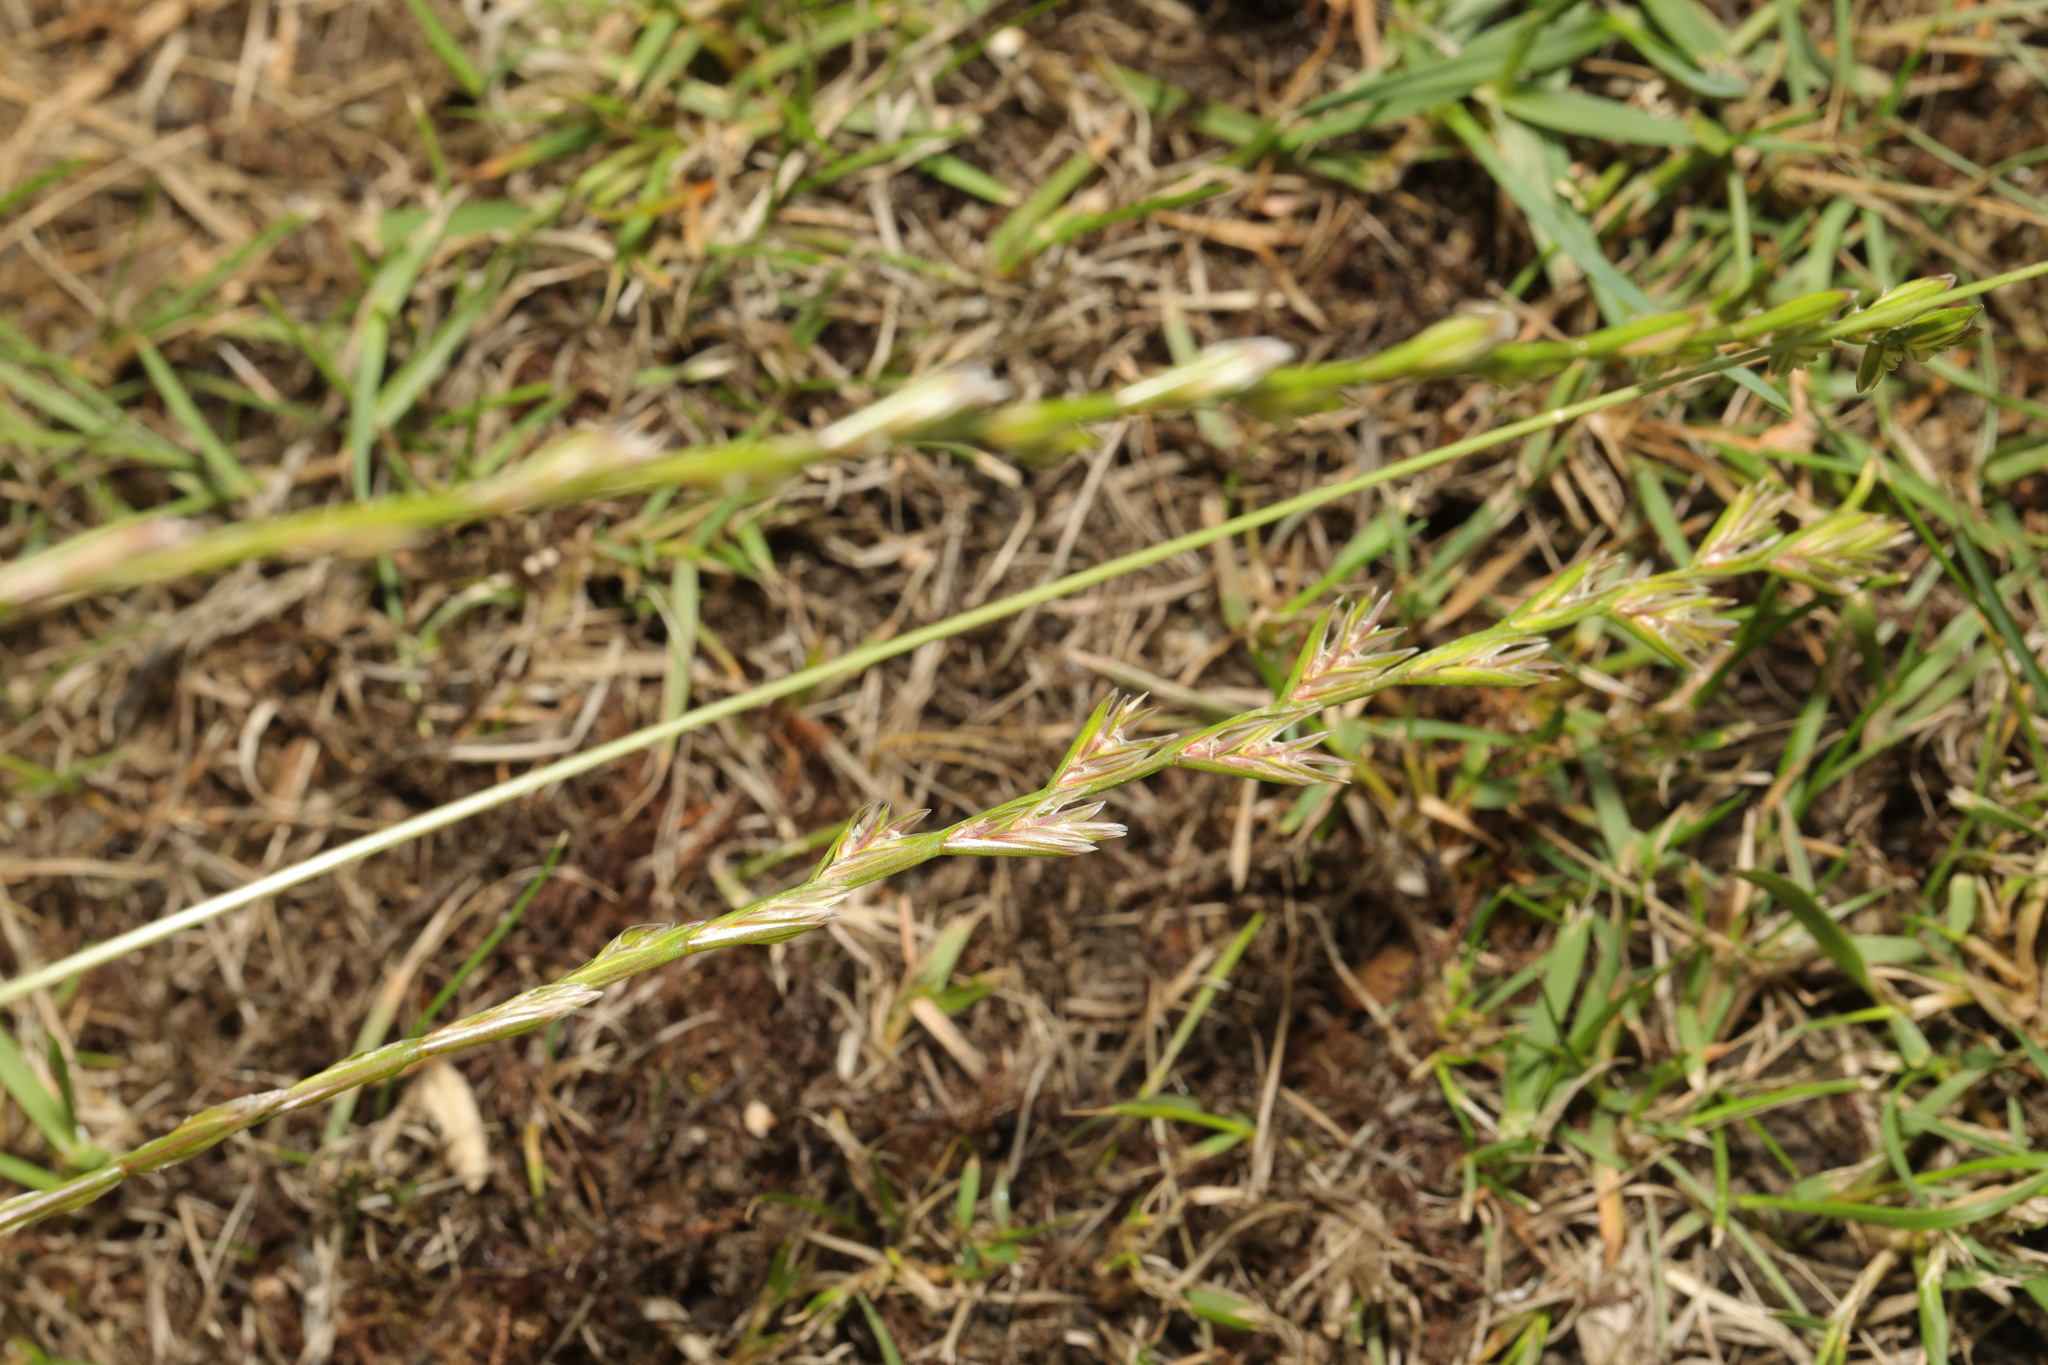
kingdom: Plantae
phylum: Tracheophyta
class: Liliopsida
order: Poales
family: Poaceae
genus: Lolium
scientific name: Lolium perenne
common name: Perennial ryegrass
